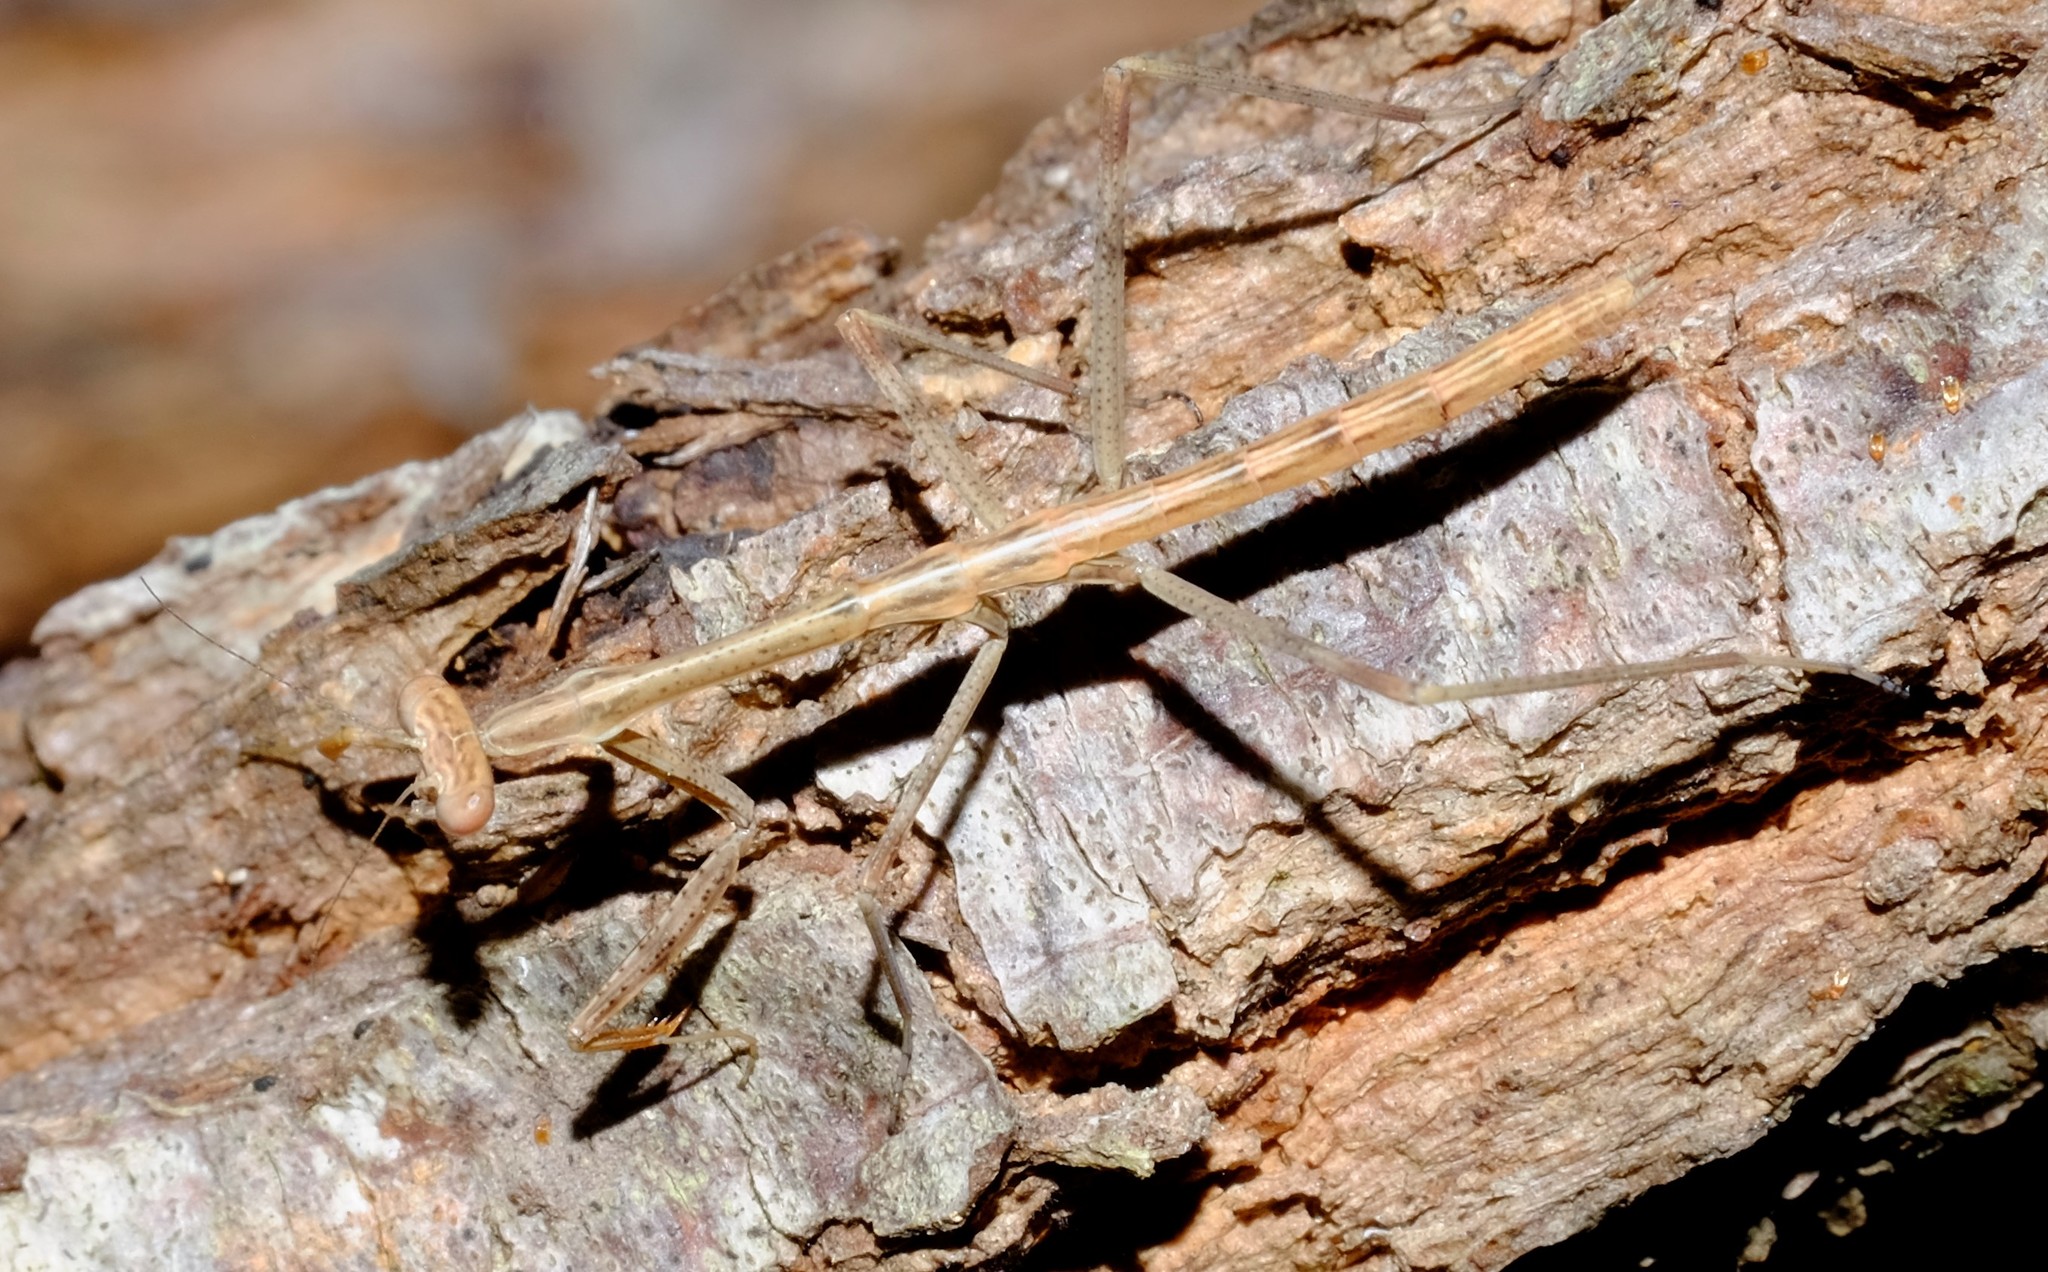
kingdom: Animalia
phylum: Arthropoda
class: Insecta
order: Mantodea
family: Mantidae
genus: Archimantis
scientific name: Archimantis latistyla
